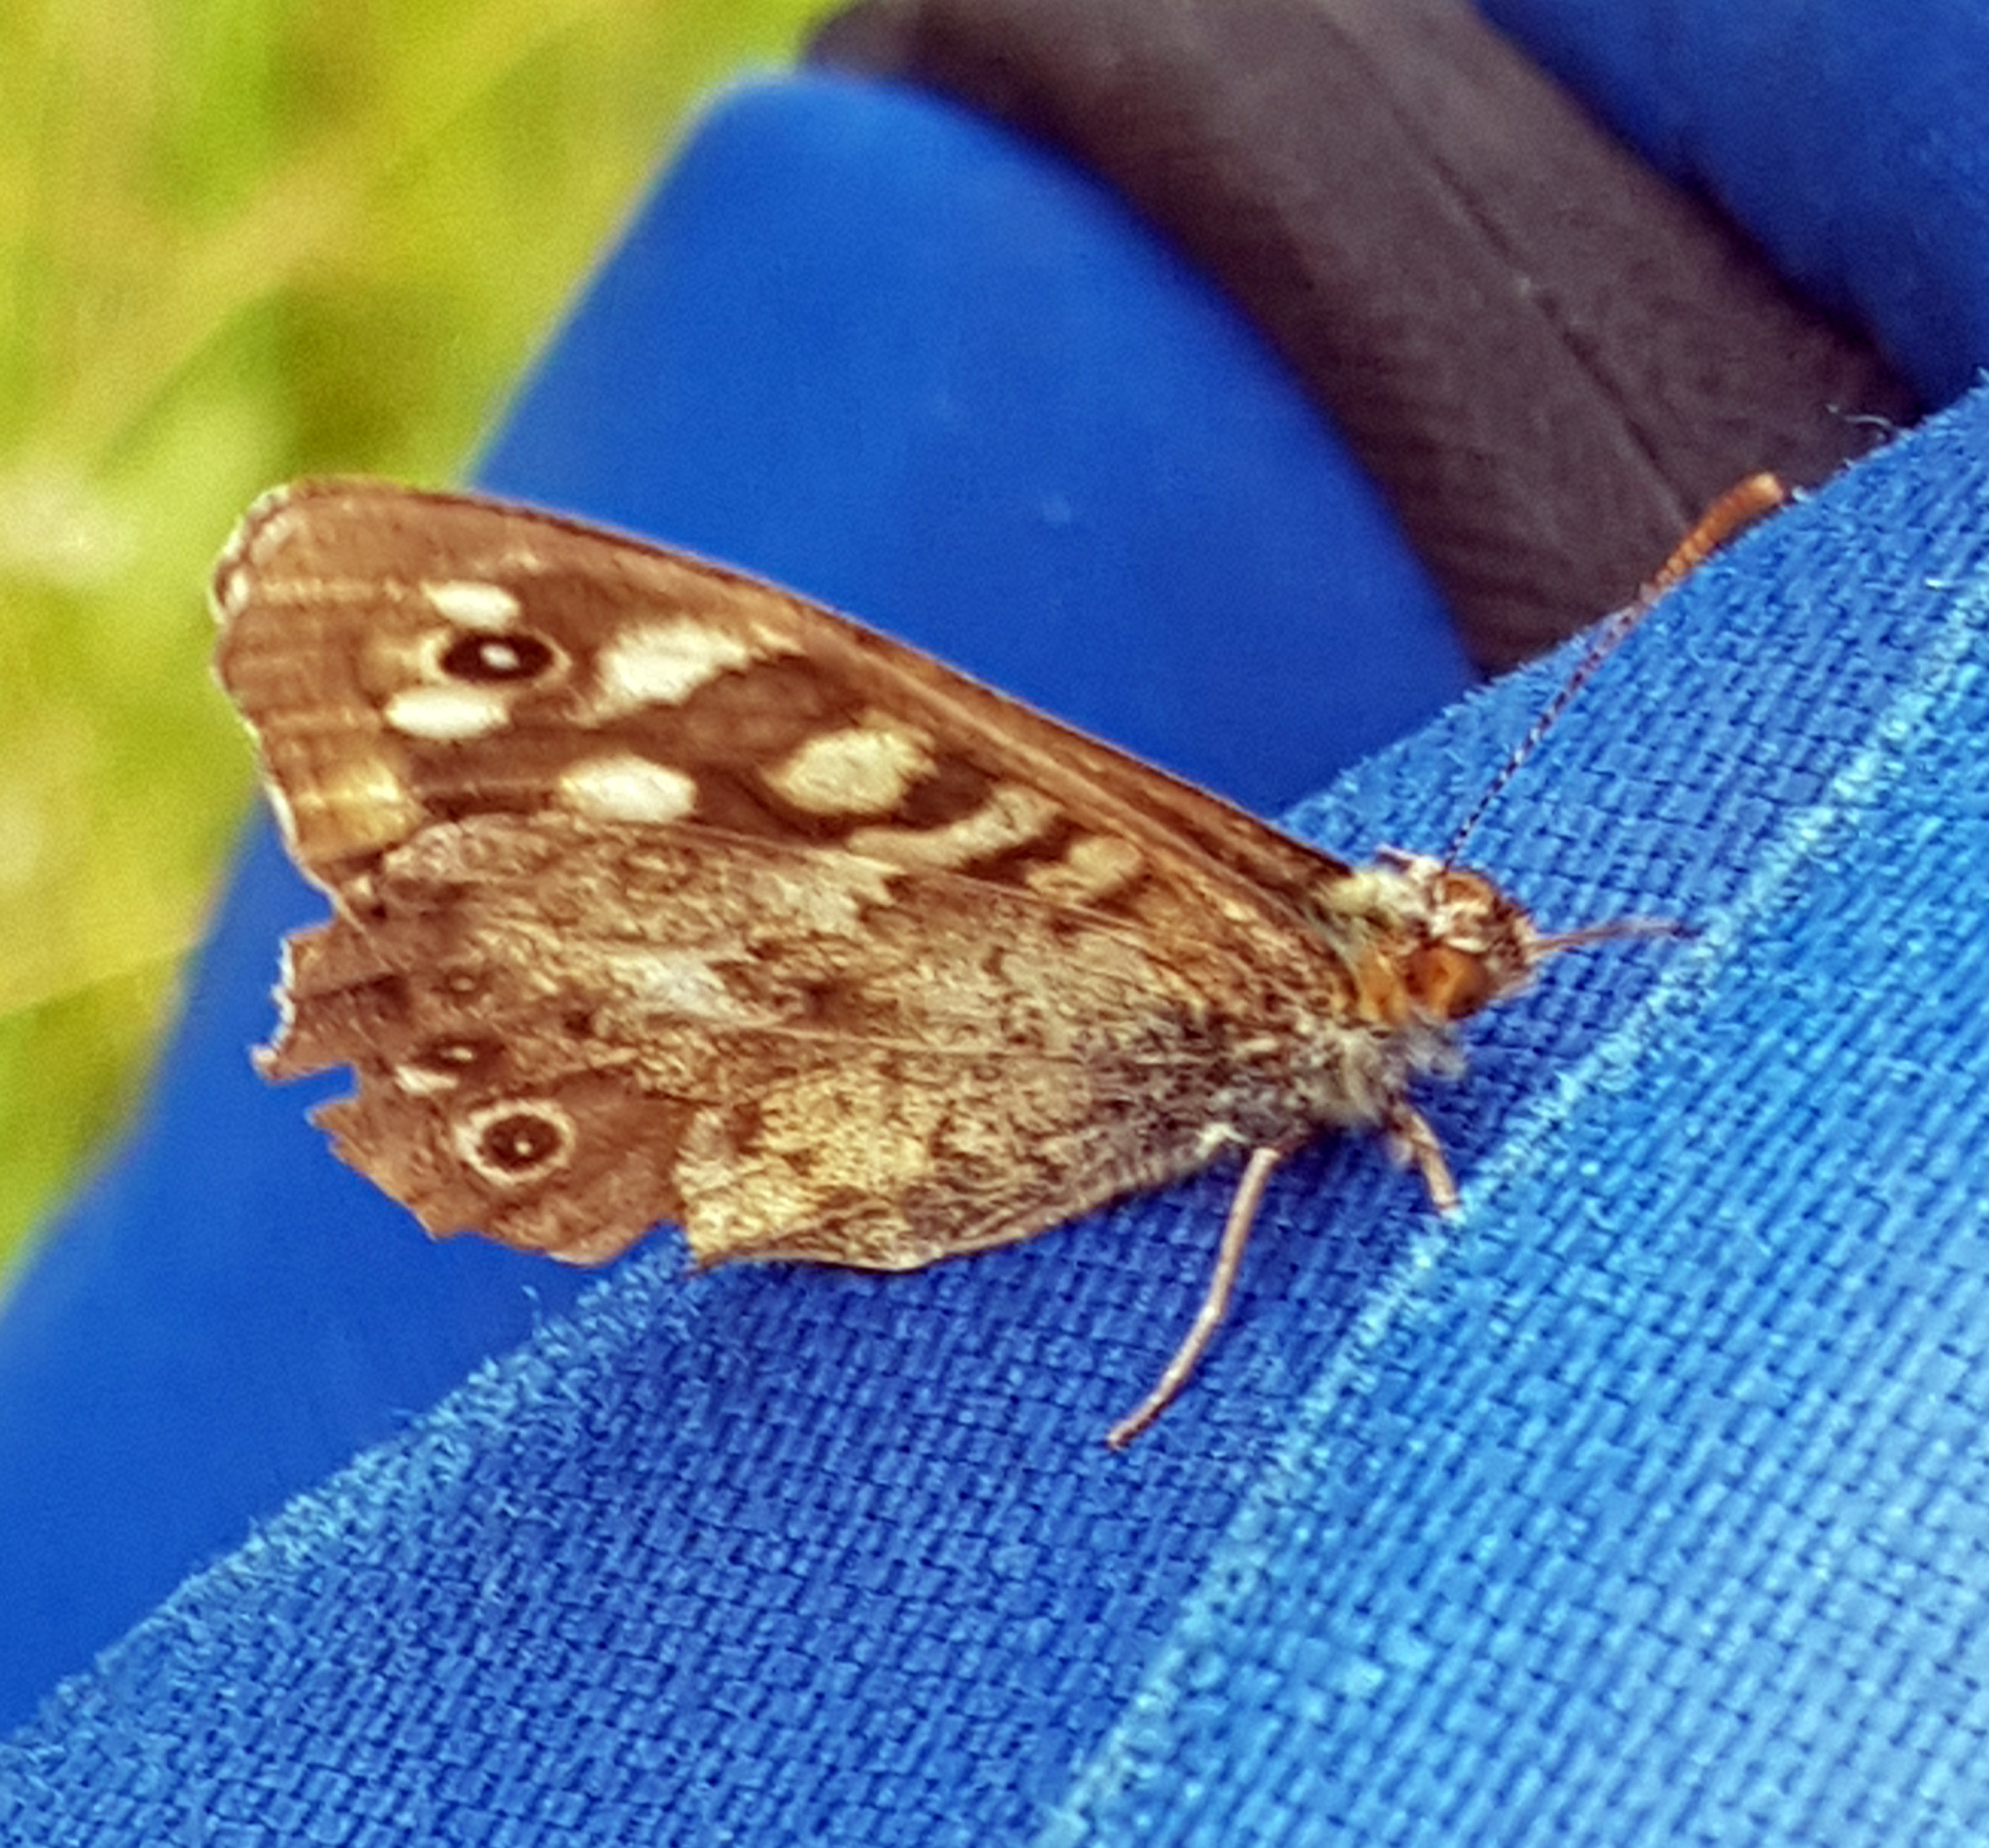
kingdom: Animalia
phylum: Arthropoda
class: Insecta
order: Lepidoptera
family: Nymphalidae
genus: Pararge
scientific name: Pararge aegeria
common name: Speckled wood
